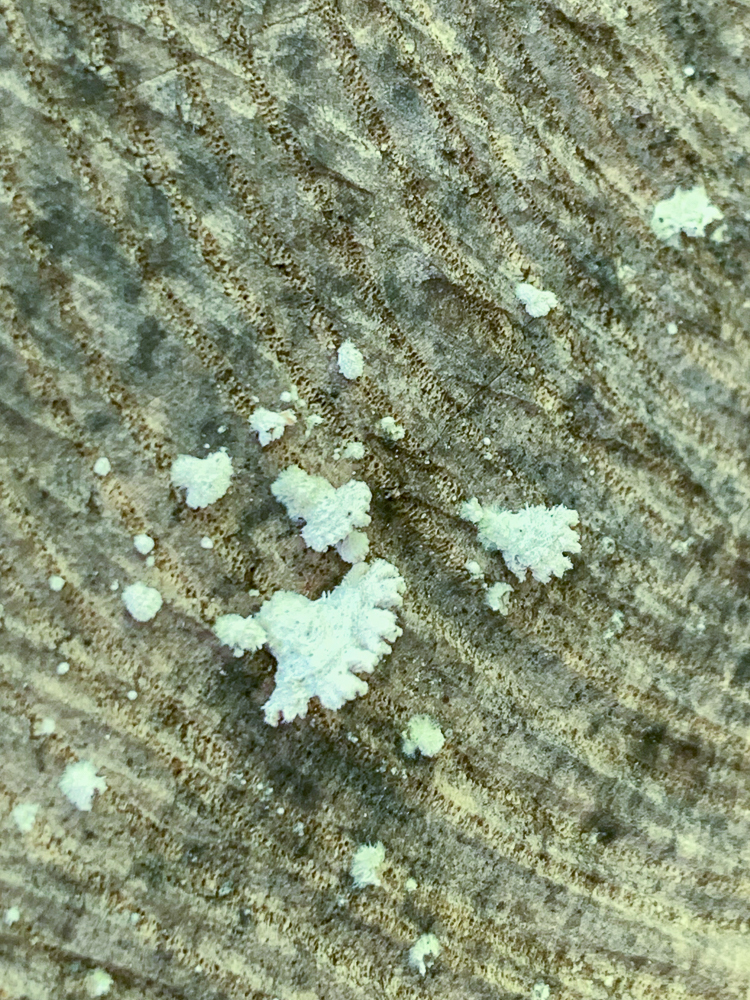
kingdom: Fungi
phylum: Basidiomycota
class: Agaricomycetes
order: Agaricales
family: Schizophyllaceae
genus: Schizophyllum
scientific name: Schizophyllum commune
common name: Common porecrust
